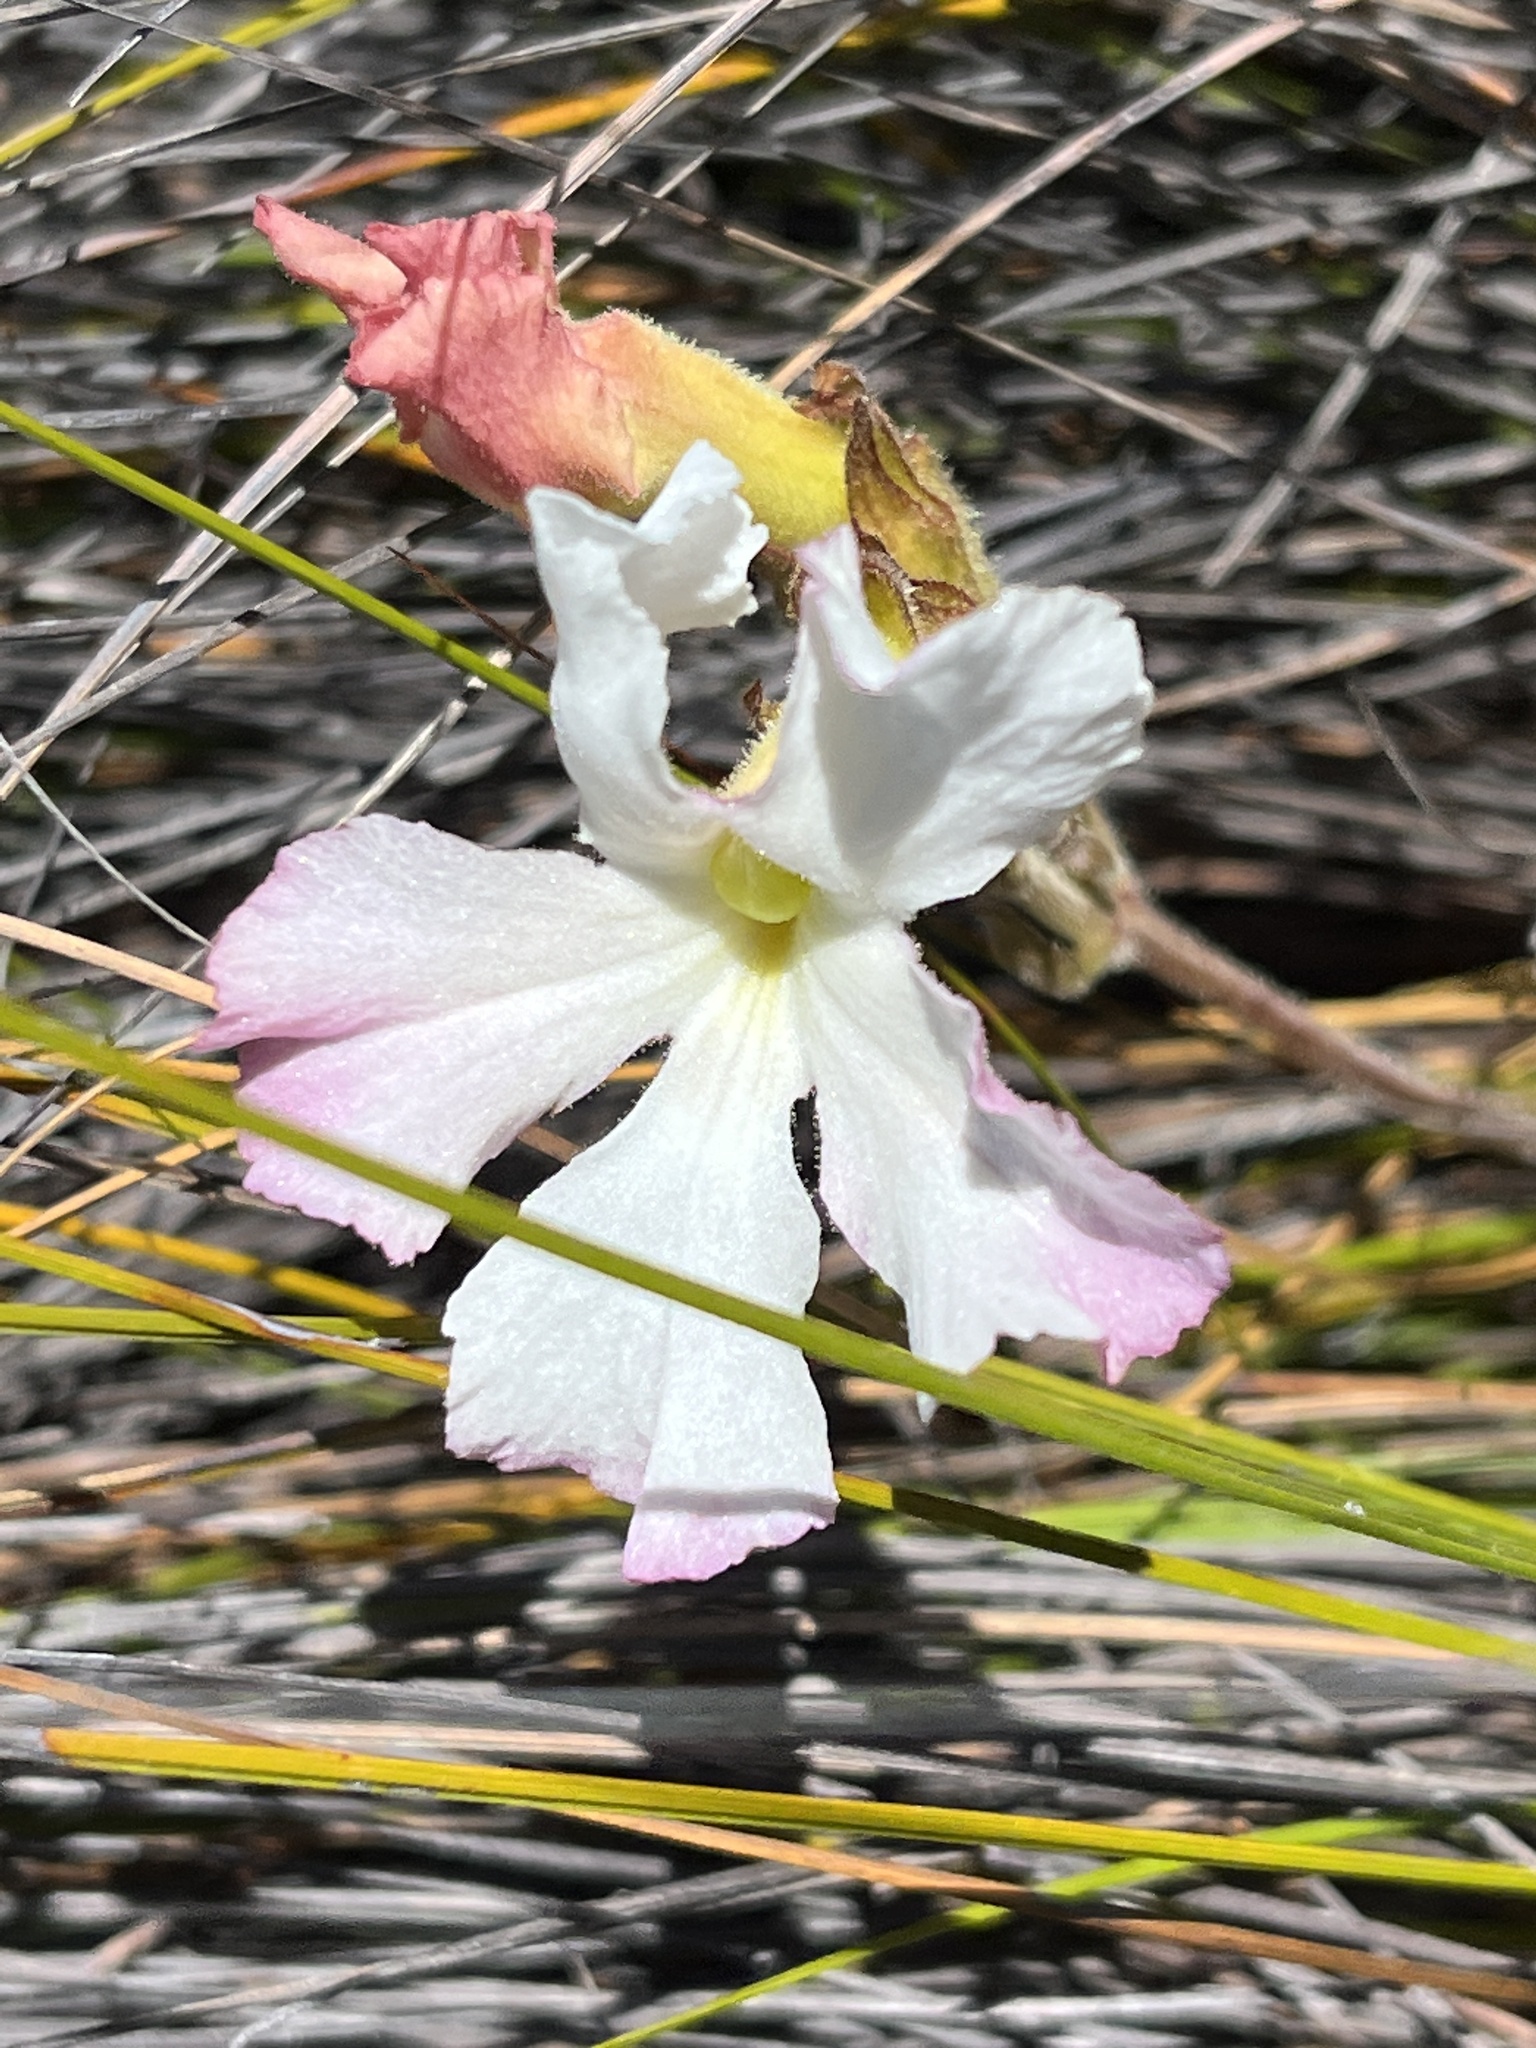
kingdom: Plantae
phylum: Tracheophyta
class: Magnoliopsida
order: Lamiales
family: Orobanchaceae
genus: Harveya
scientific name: Harveya capensis
